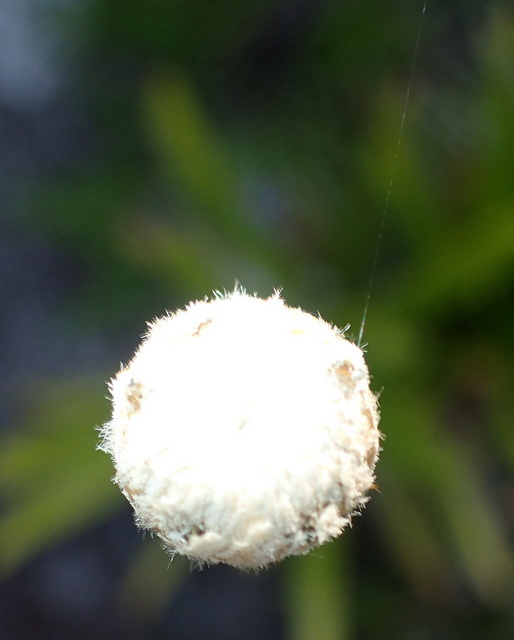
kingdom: Plantae
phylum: Tracheophyta
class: Liliopsida
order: Poales
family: Eriocaulaceae
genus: Eriocaulon
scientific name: Eriocaulon decangulare
